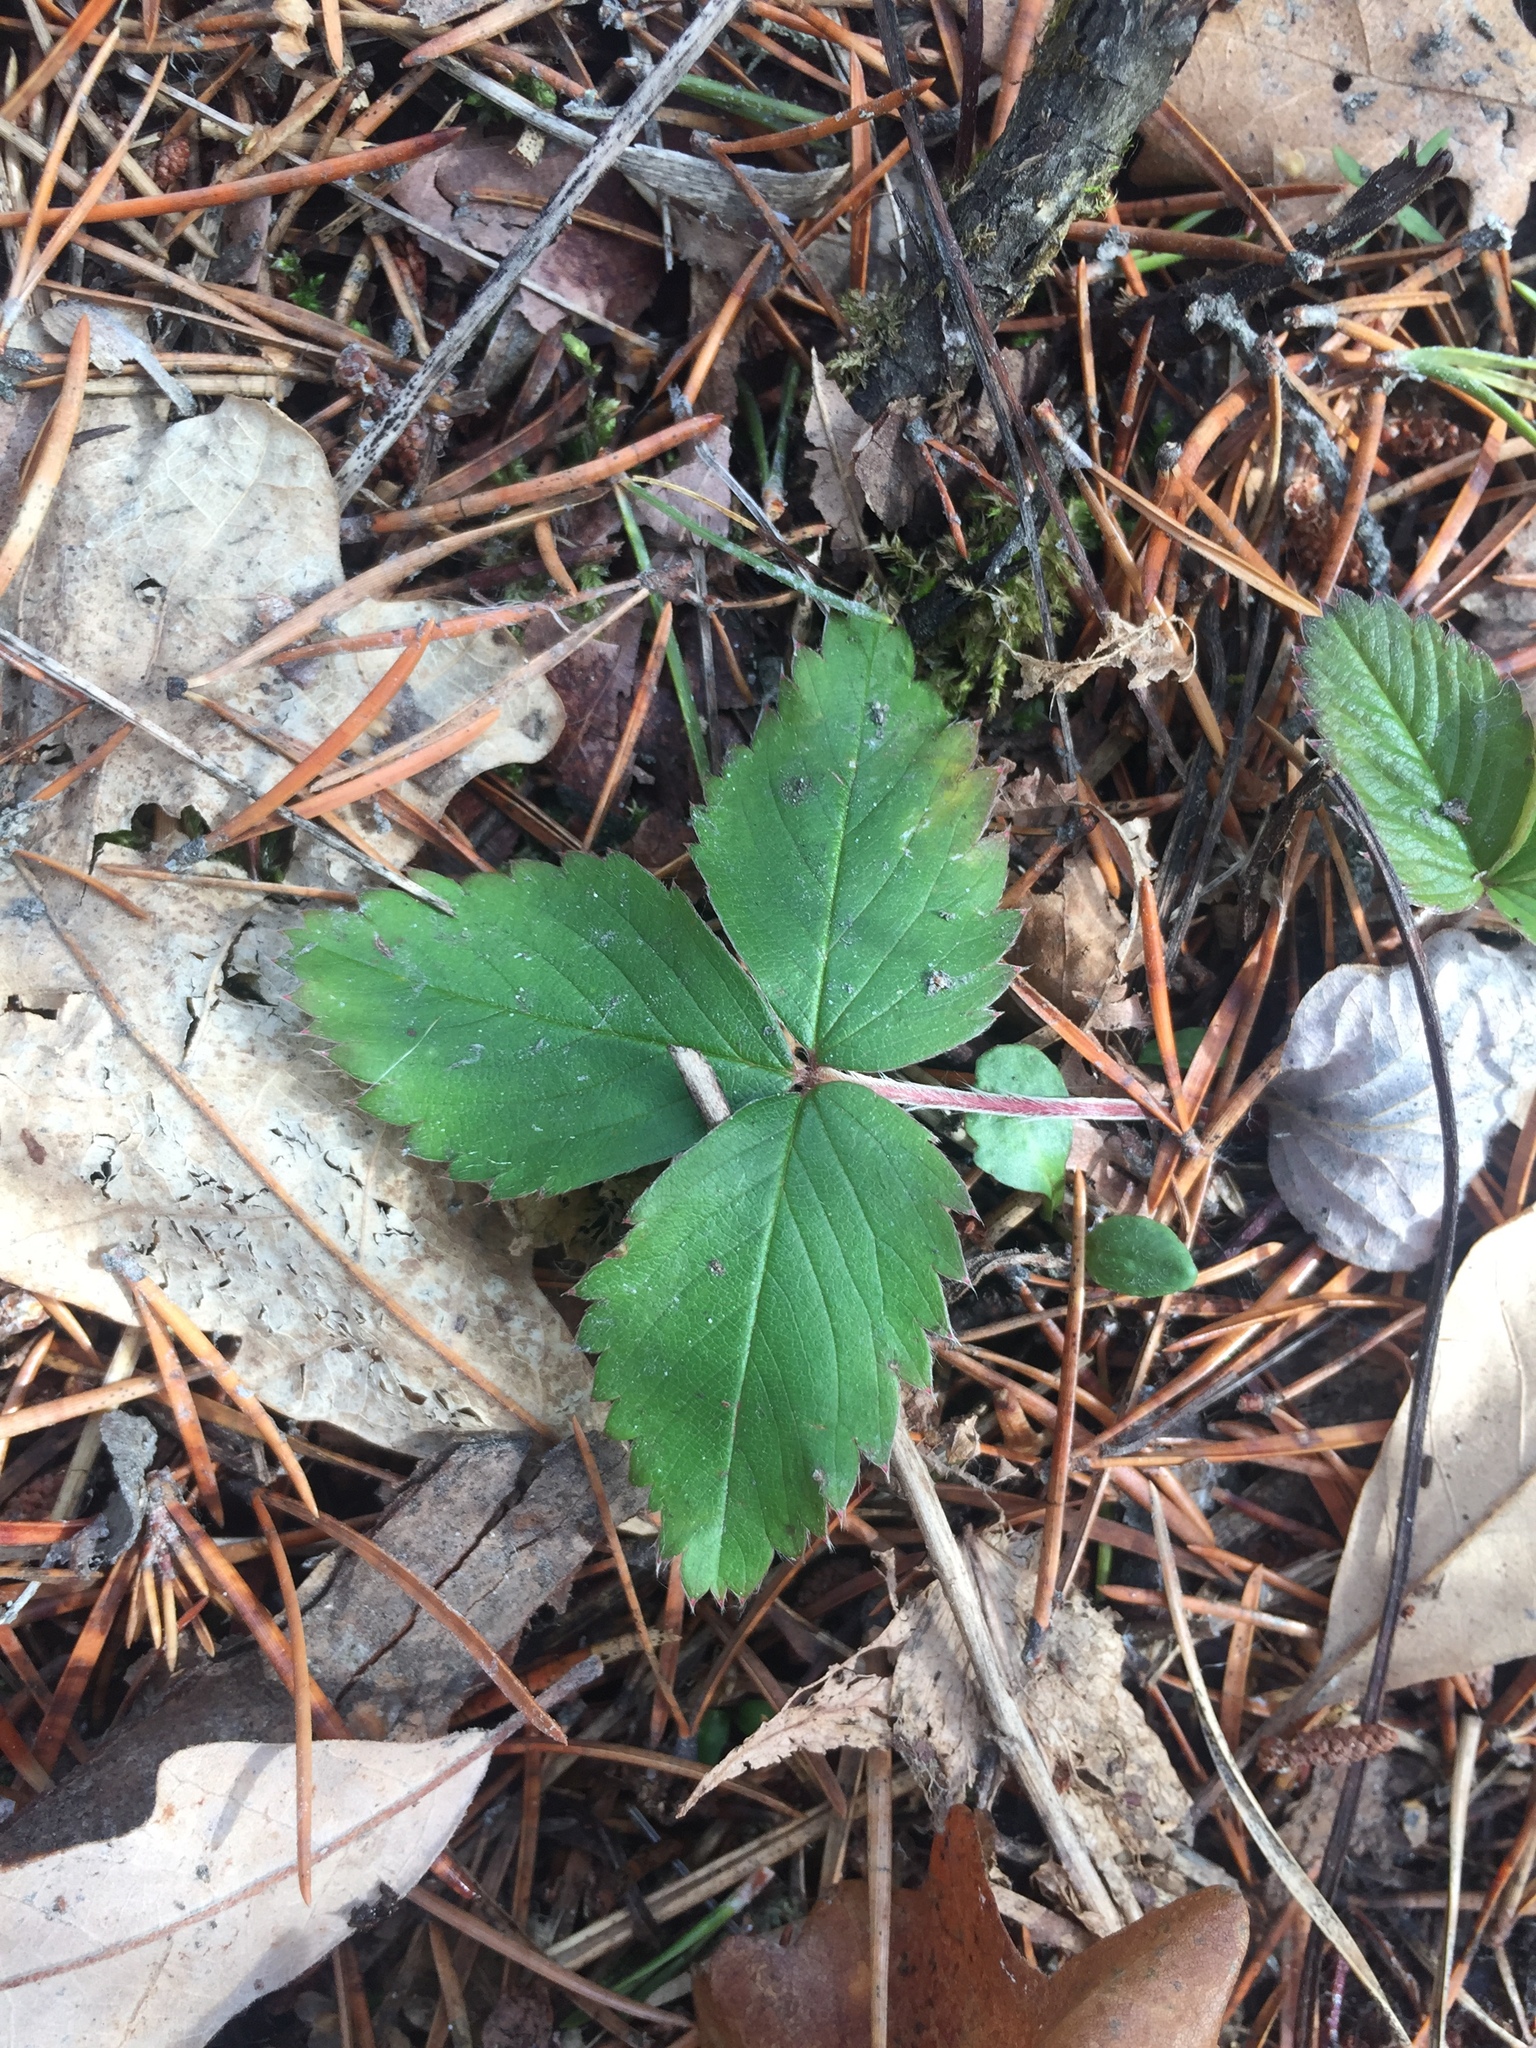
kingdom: Plantae
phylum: Tracheophyta
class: Magnoliopsida
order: Rosales
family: Rosaceae
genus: Fragaria
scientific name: Fragaria virginiana
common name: Thickleaved wild strawberry
